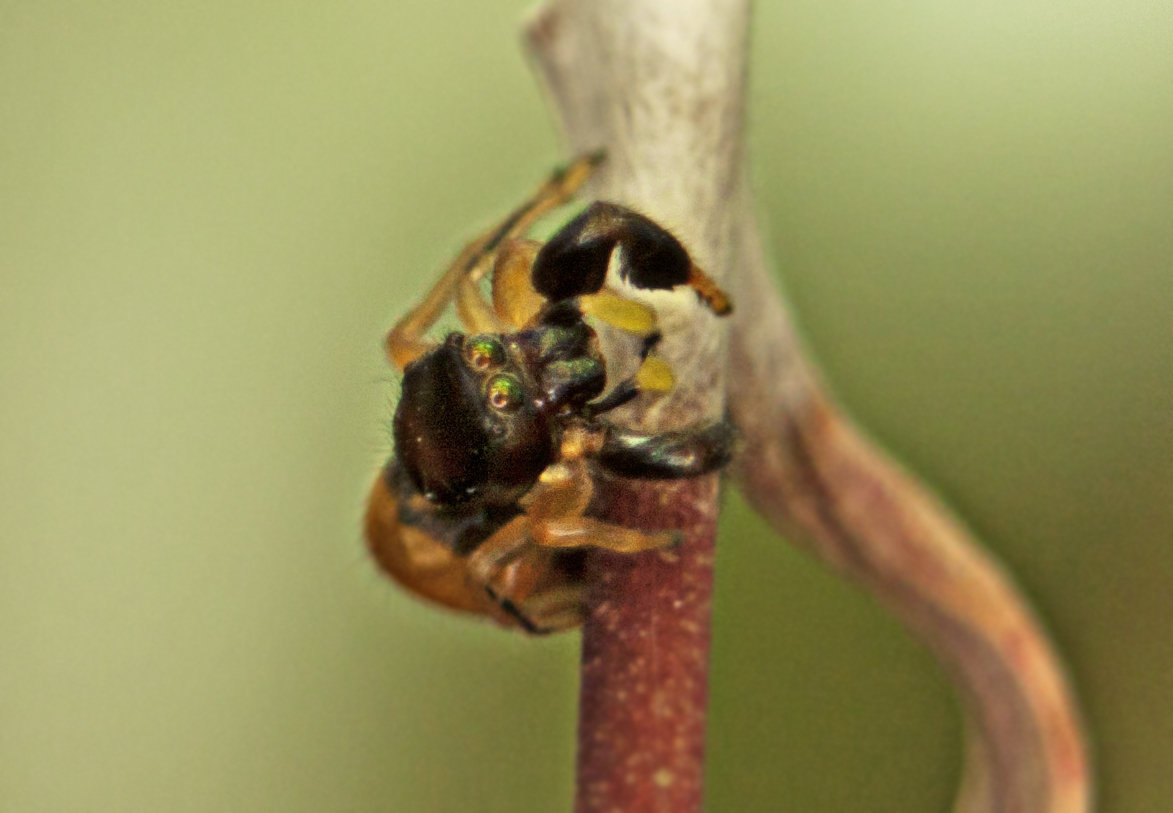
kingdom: Animalia
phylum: Arthropoda
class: Arachnida
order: Araneae
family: Salticidae
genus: Judalana
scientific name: Judalana lutea
